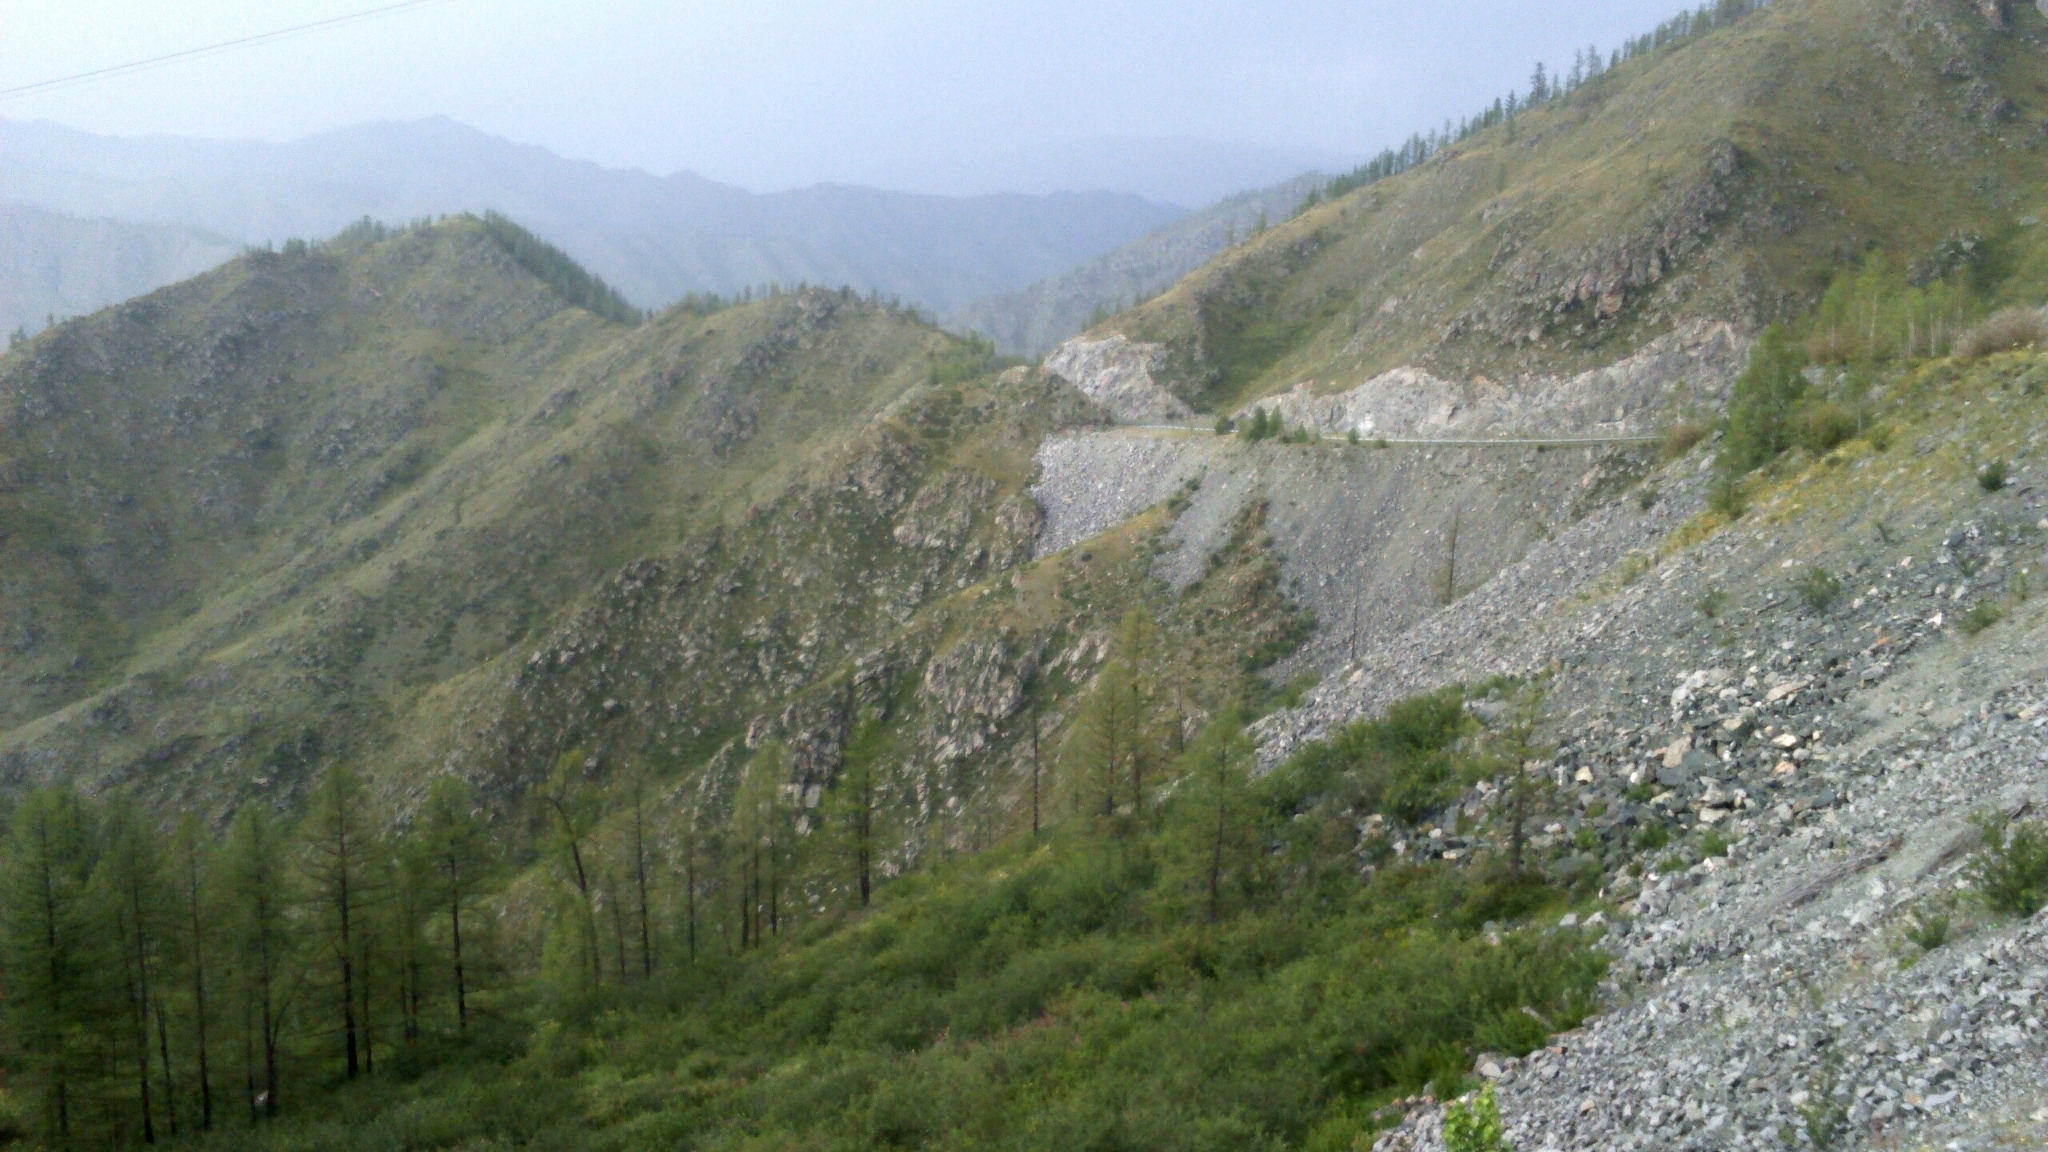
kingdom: Plantae
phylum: Tracheophyta
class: Pinopsida
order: Pinales
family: Pinaceae
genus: Larix
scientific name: Larix sibirica
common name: Siberian larch
